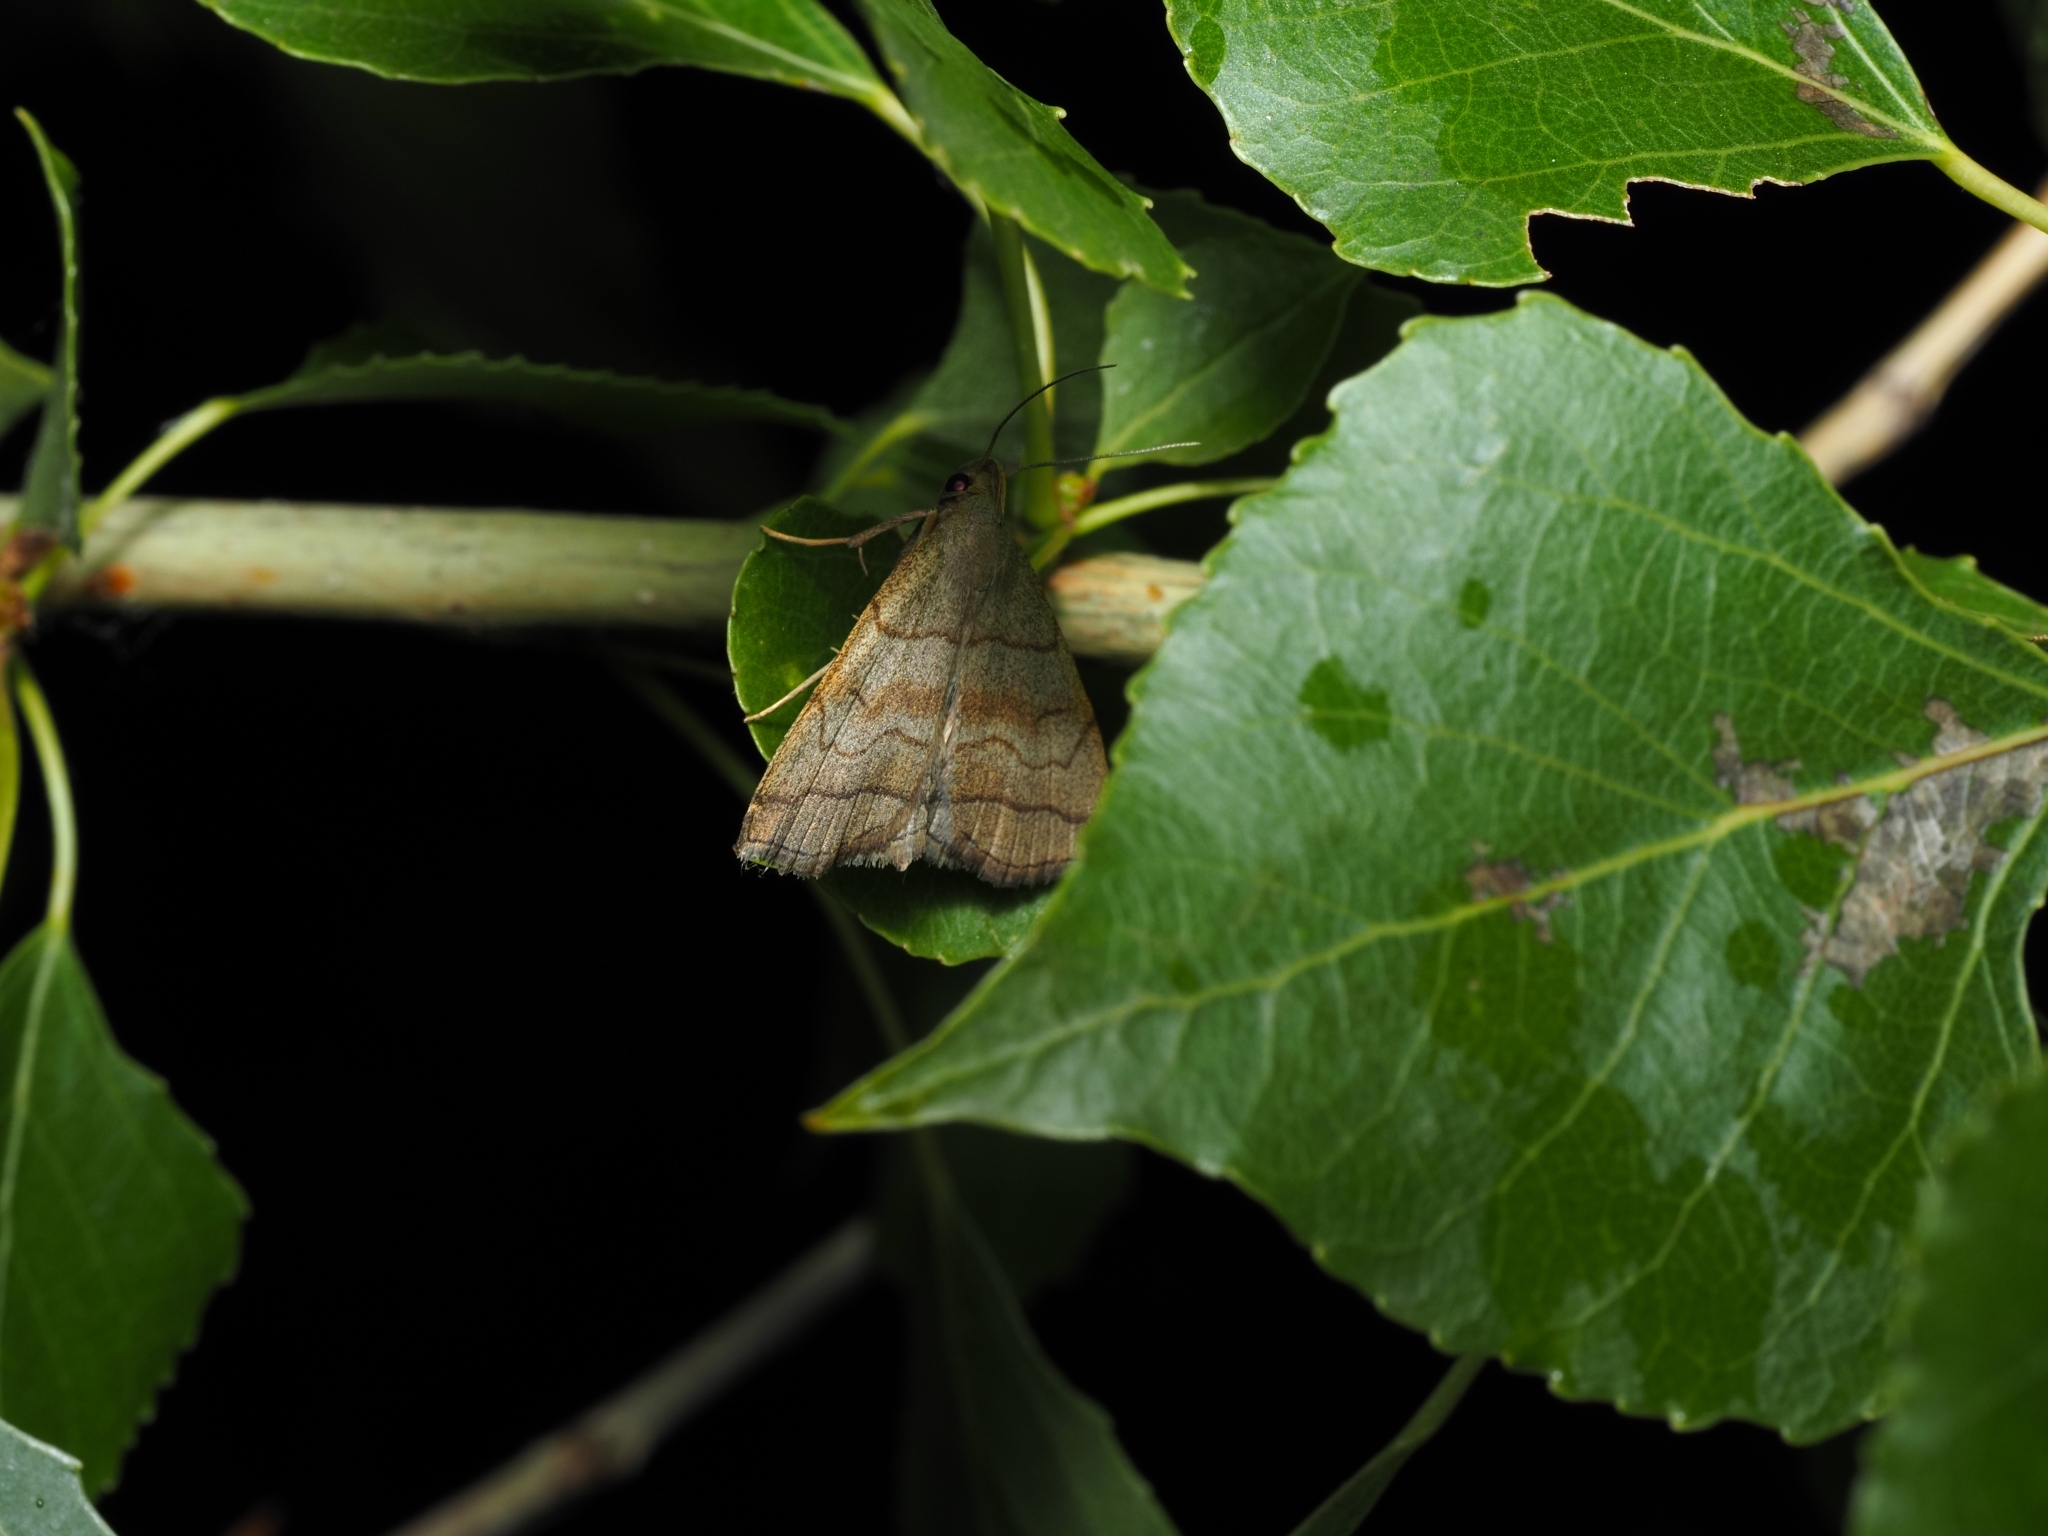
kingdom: Animalia
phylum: Arthropoda
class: Insecta
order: Lepidoptera
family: Erebidae
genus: Herminia
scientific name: Herminia tarsicrinalis
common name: Shaded fan-foot
